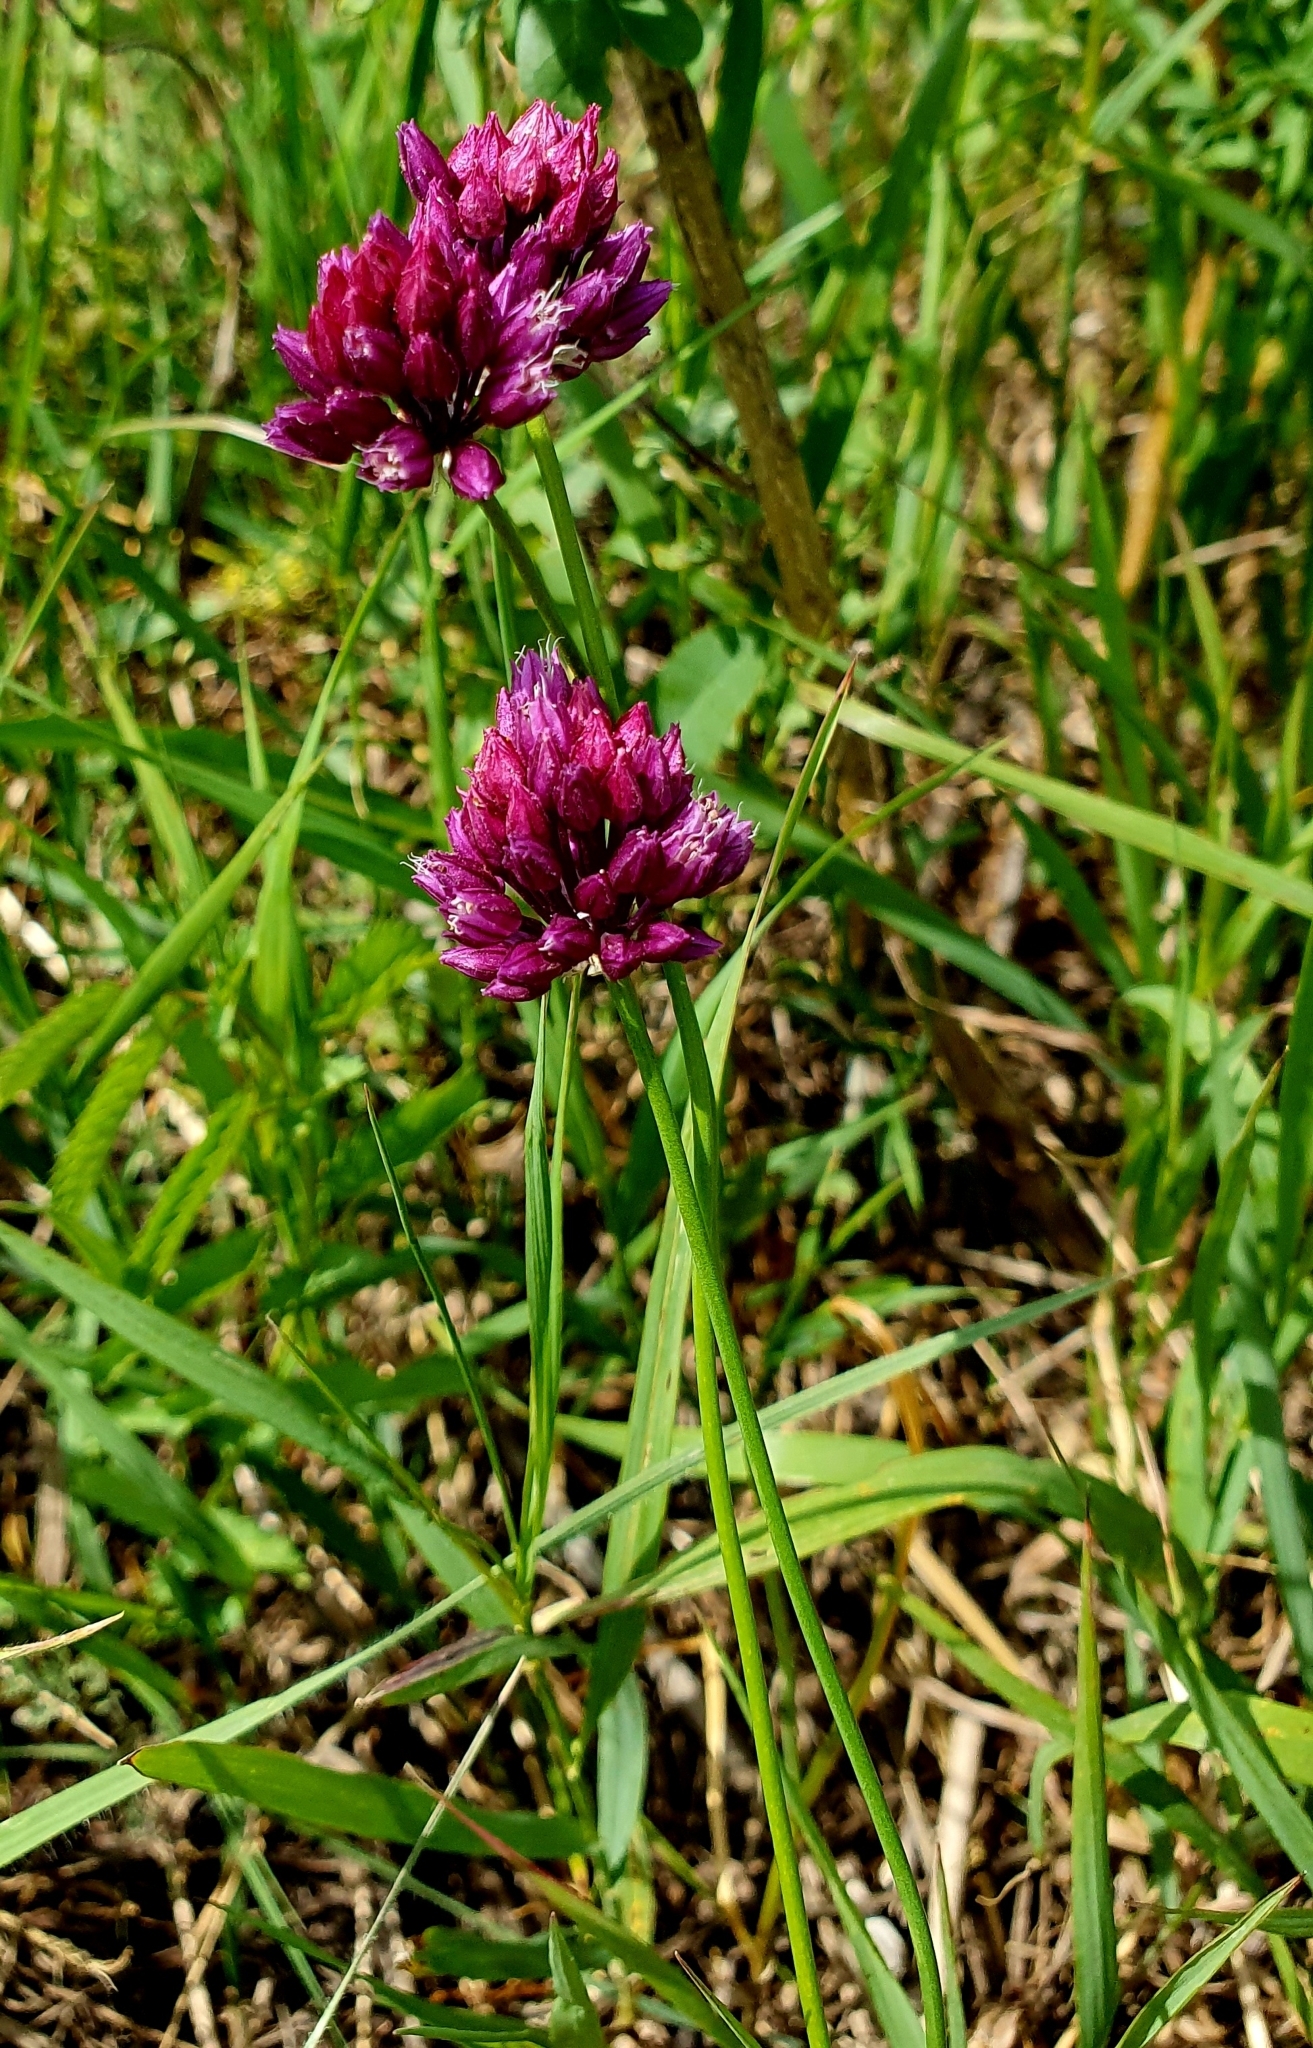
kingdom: Plantae
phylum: Tracheophyta
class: Liliopsida
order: Asparagales
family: Amaryllidaceae
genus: Allium
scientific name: Allium rotundum
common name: Sand leek
